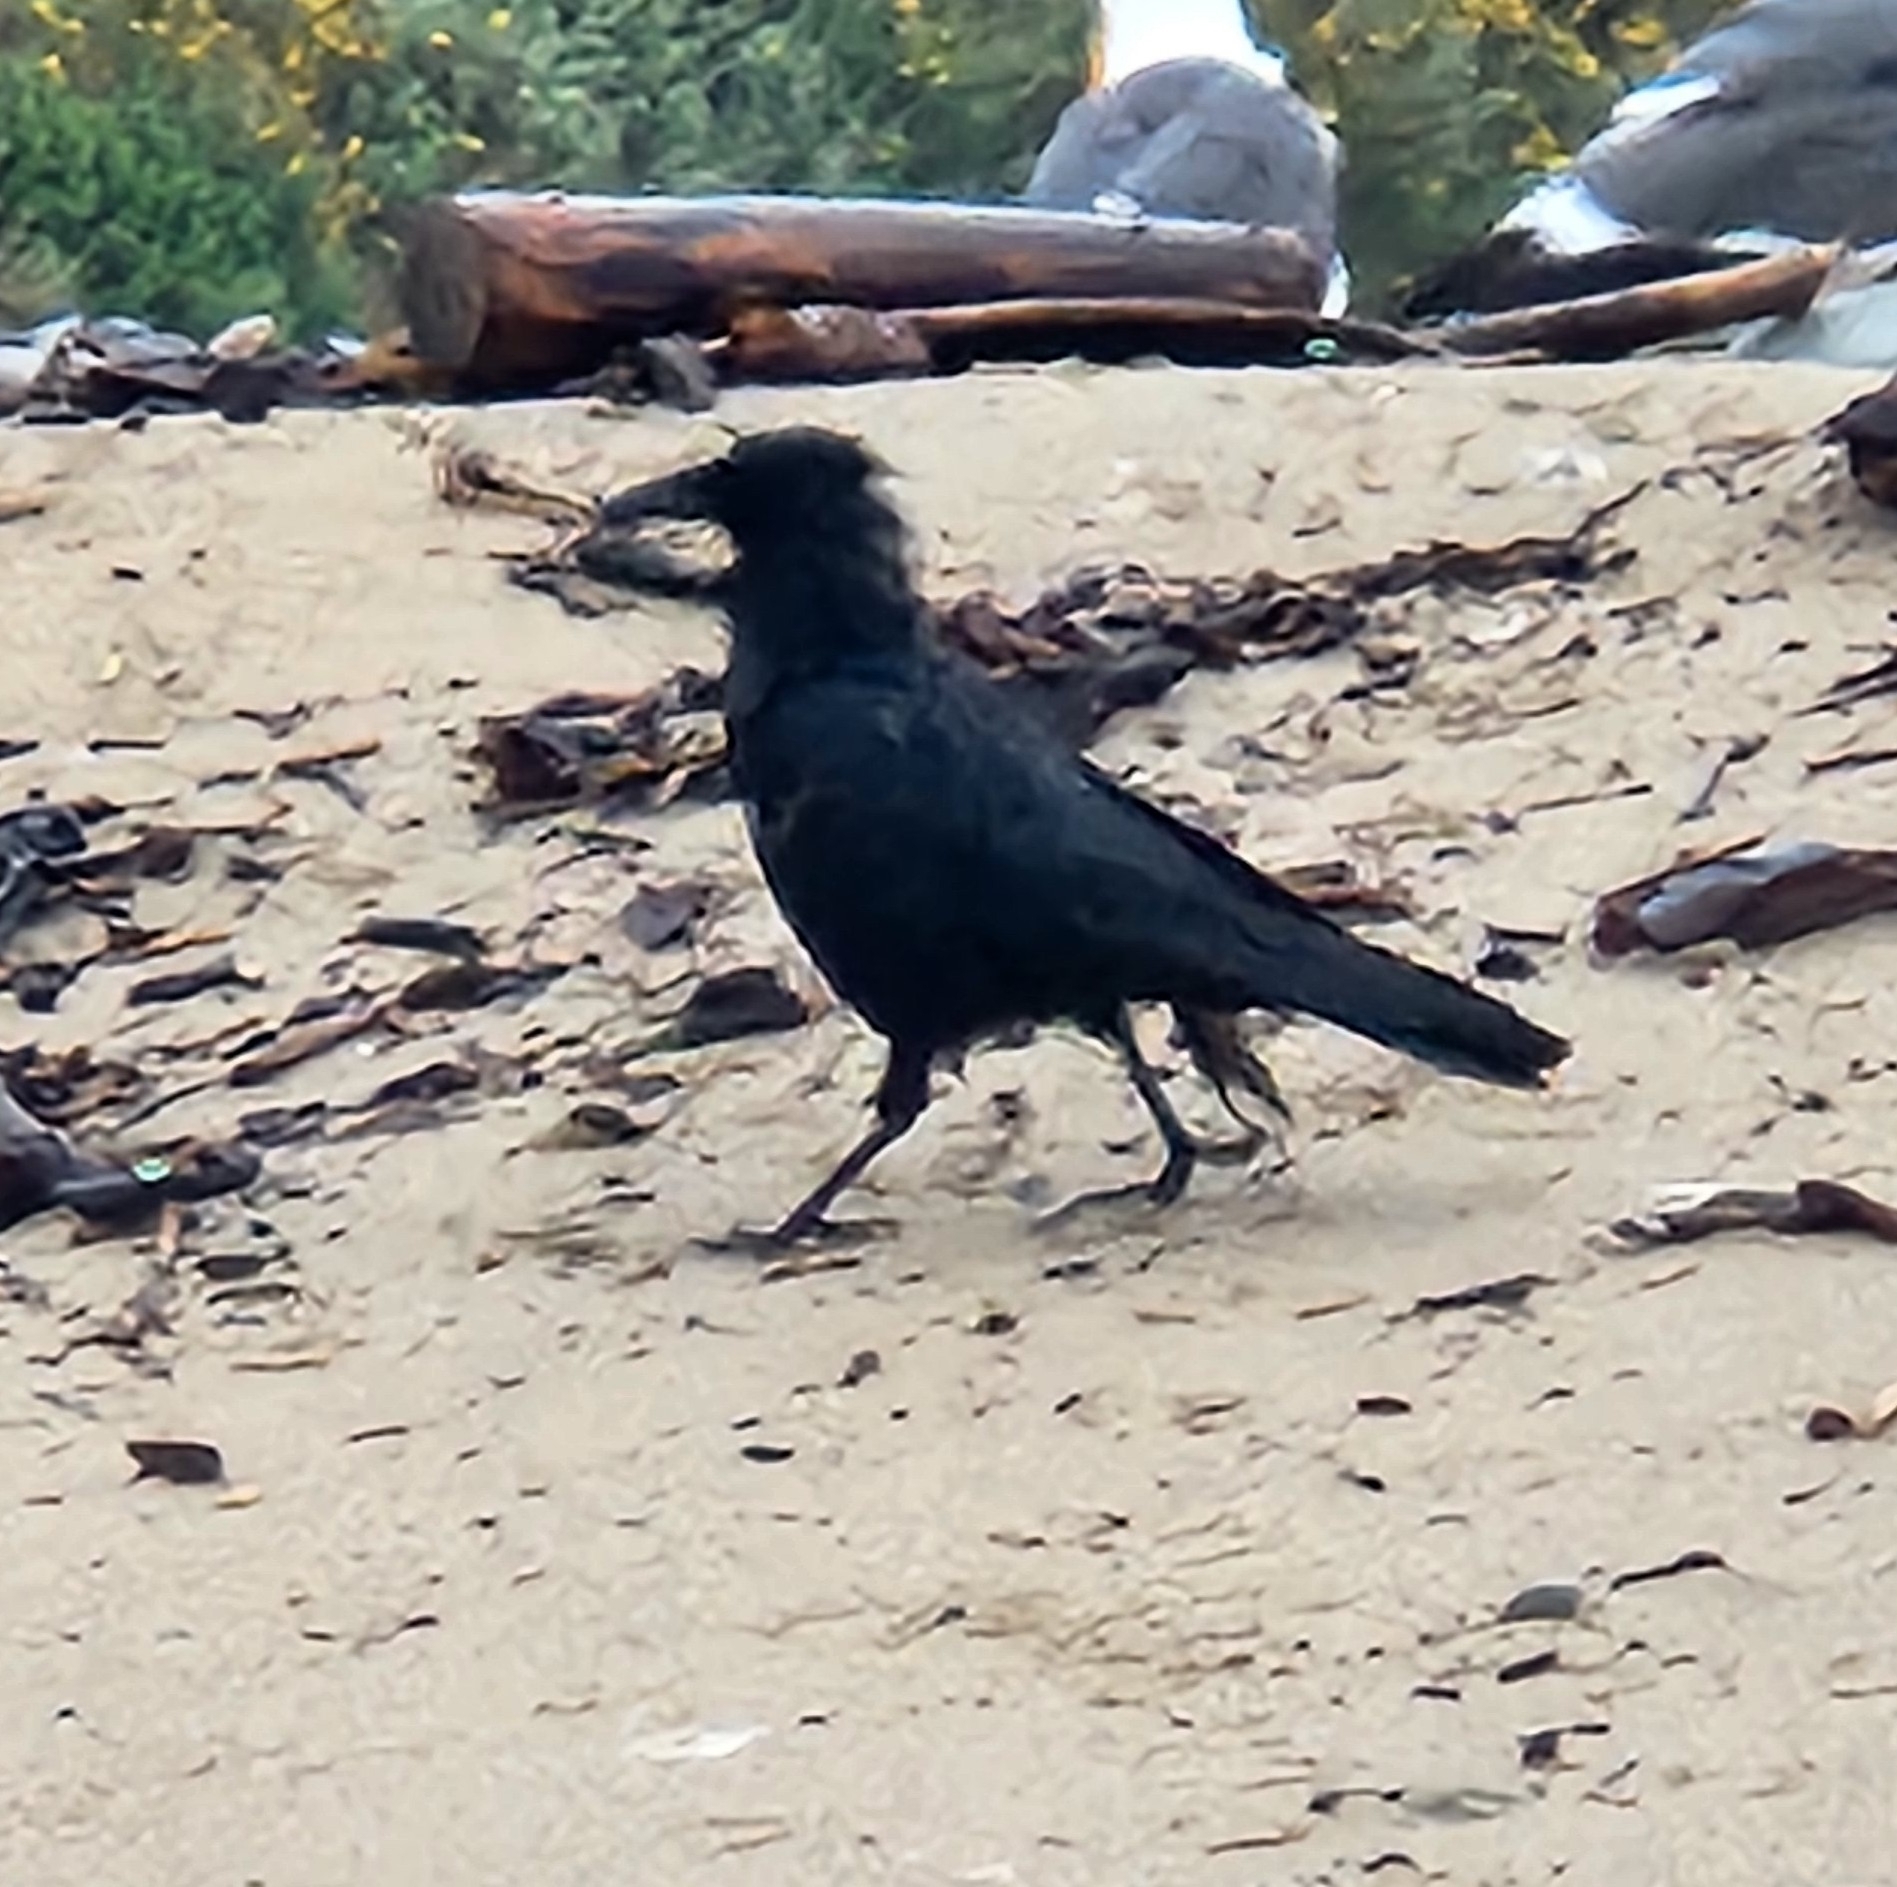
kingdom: Animalia
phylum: Chordata
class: Aves
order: Passeriformes
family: Corvidae
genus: Corvus
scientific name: Corvus brachyrhynchos
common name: American crow
